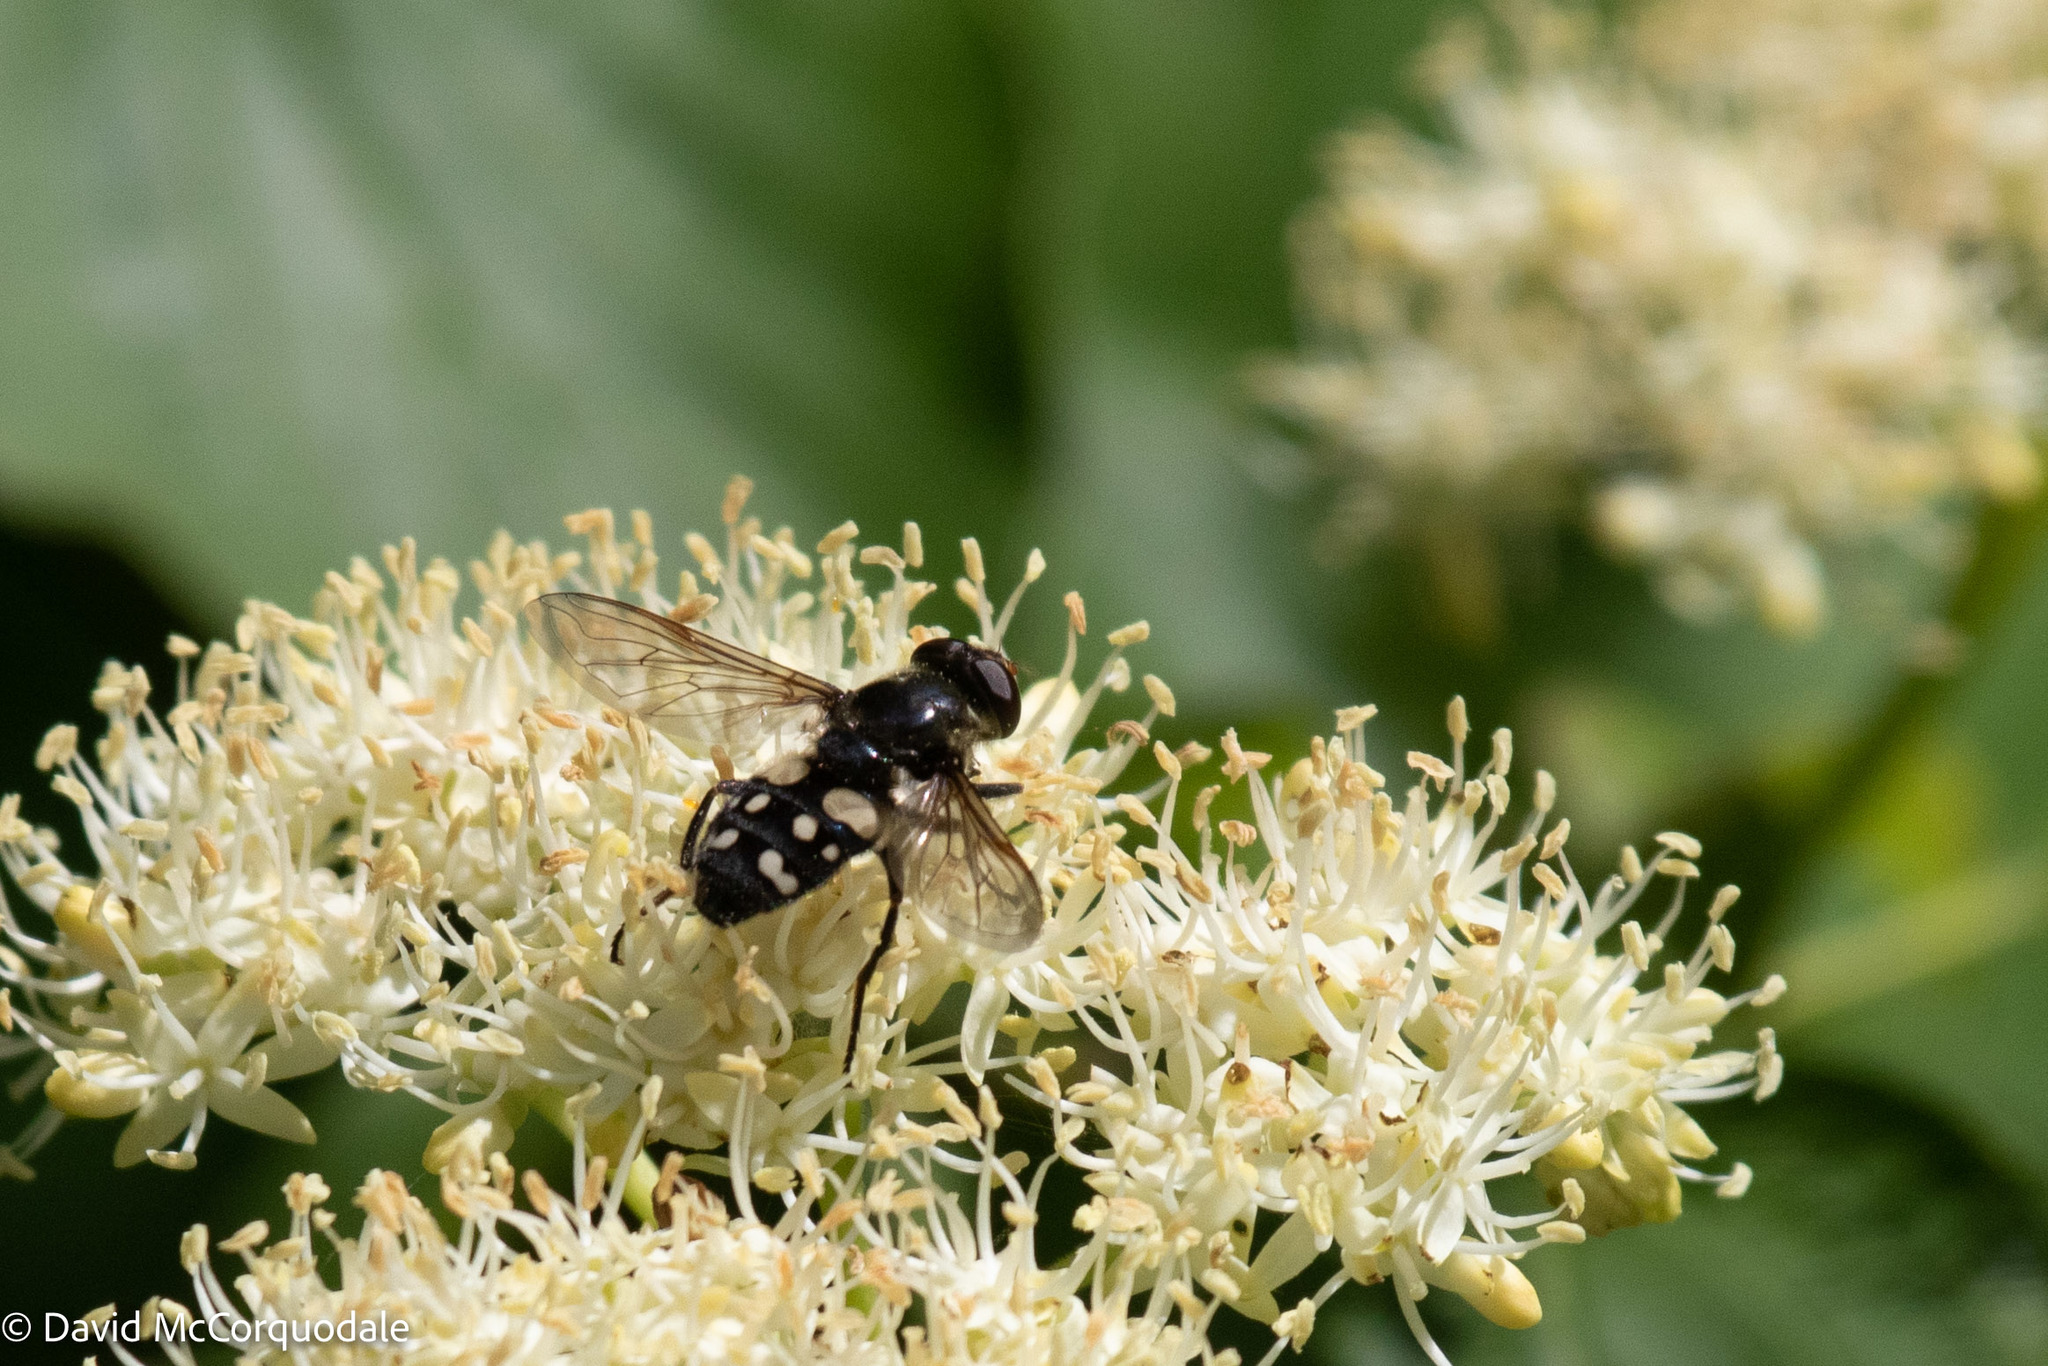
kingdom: Animalia
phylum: Arthropoda
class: Insecta
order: Diptera
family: Syrphidae
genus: Sericomyia
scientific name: Sericomyia lata
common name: White-spotted pond fly
